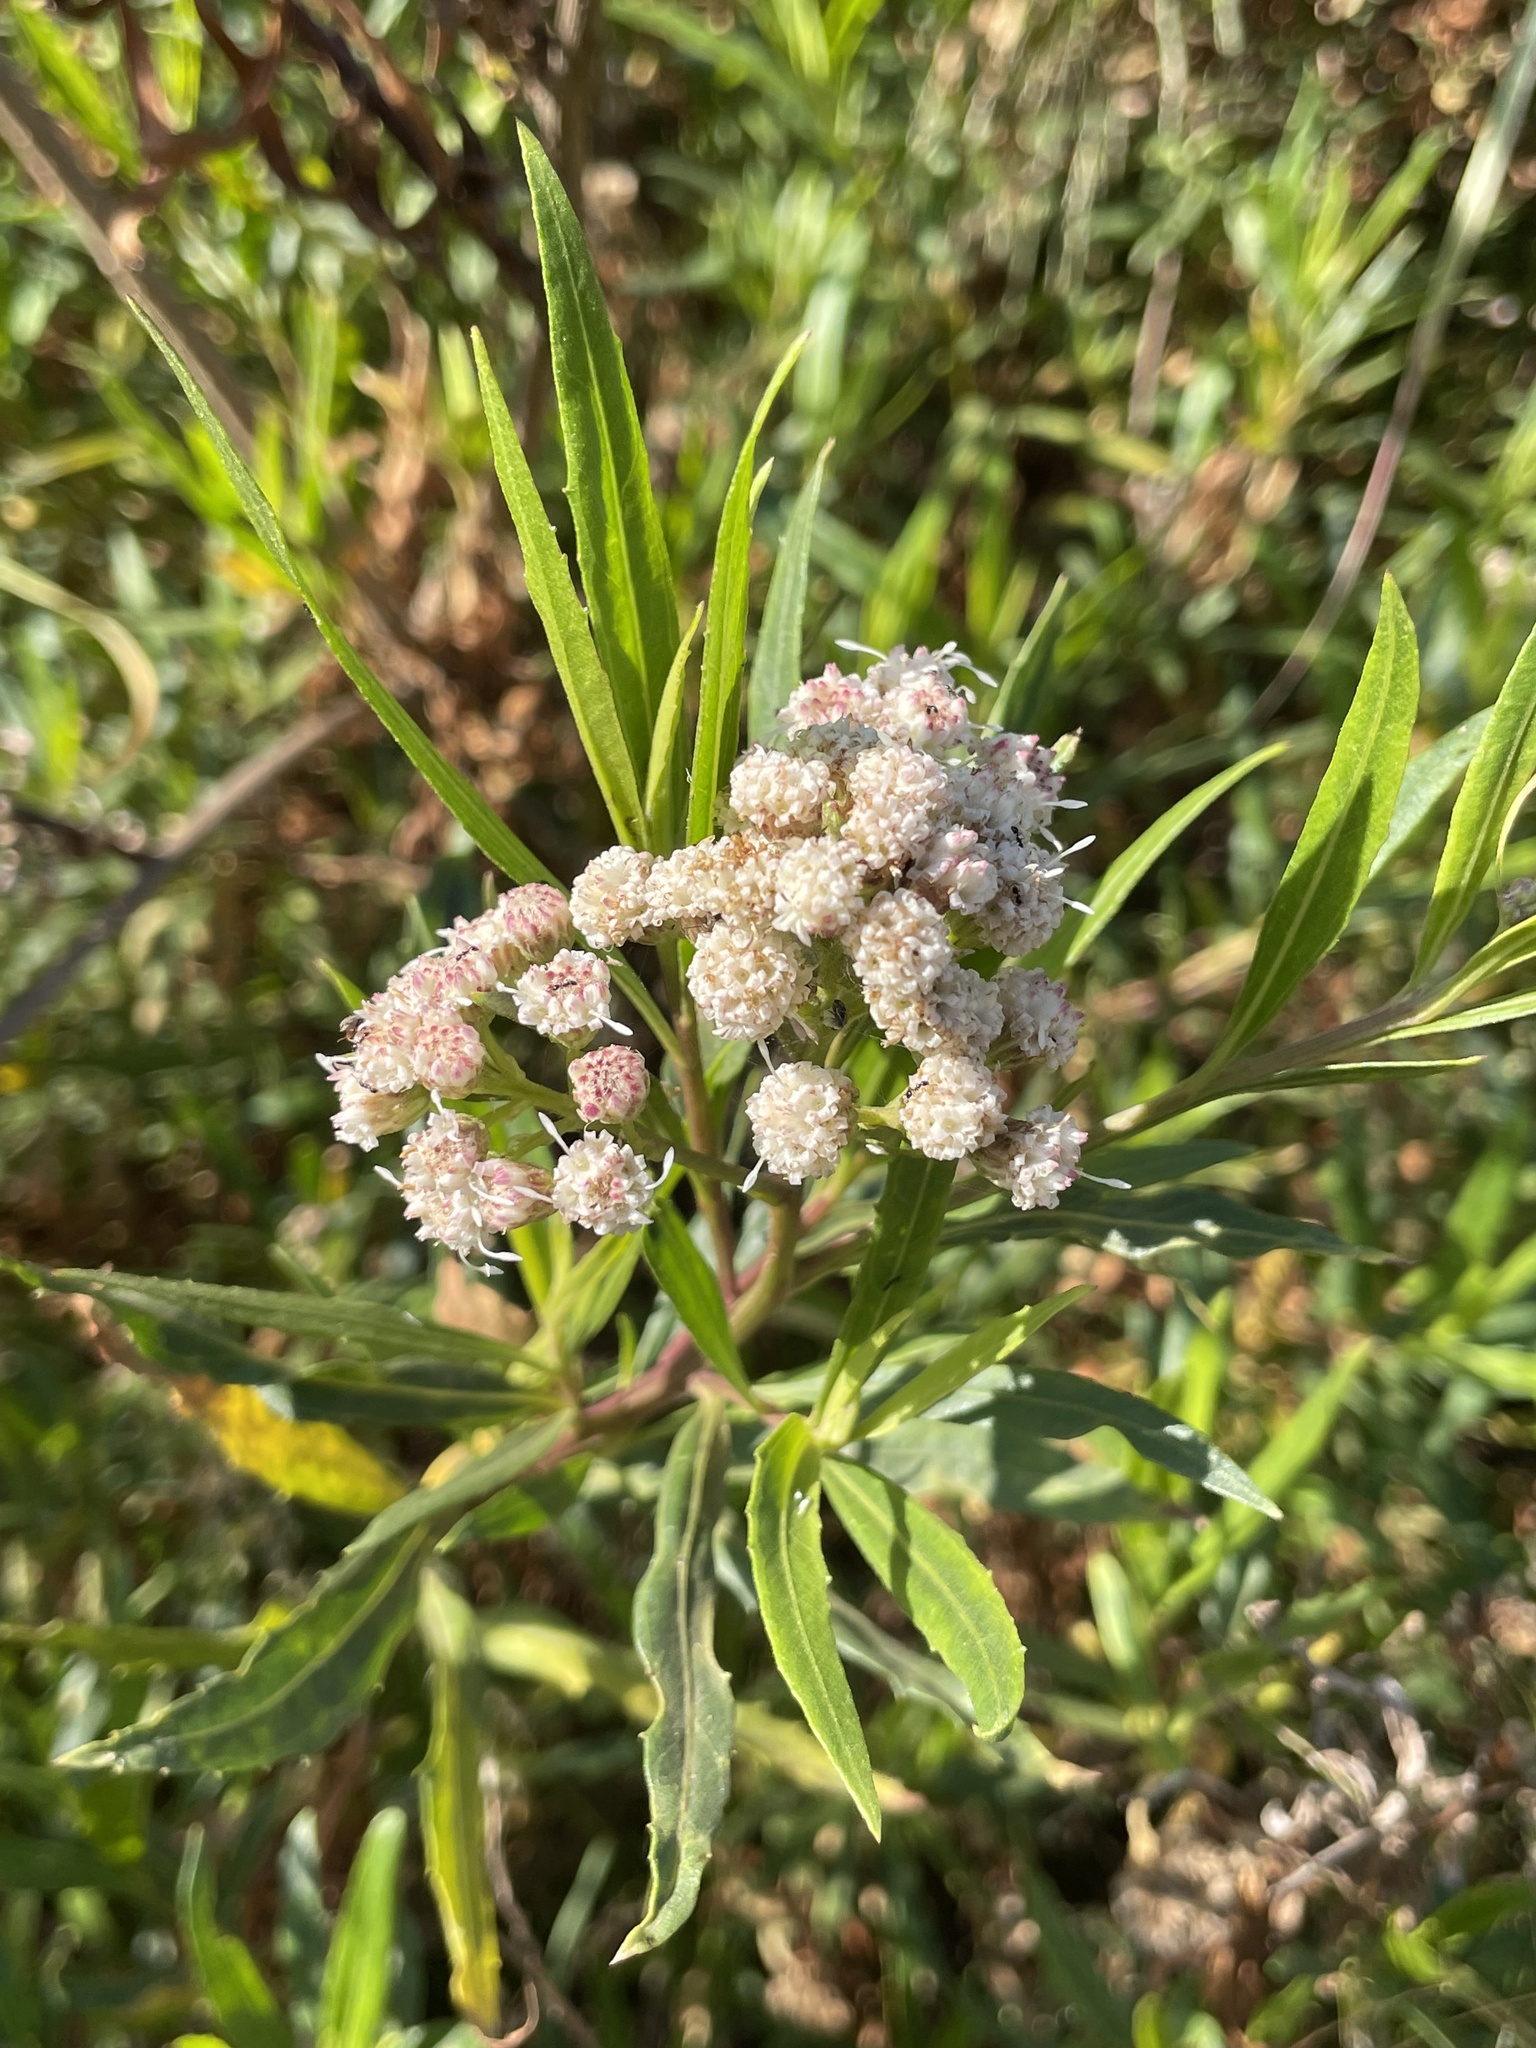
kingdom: Plantae
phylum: Tracheophyta
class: Magnoliopsida
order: Asterales
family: Asteraceae
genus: Baccharis
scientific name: Baccharis salicifolia
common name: Sticky baccharis
